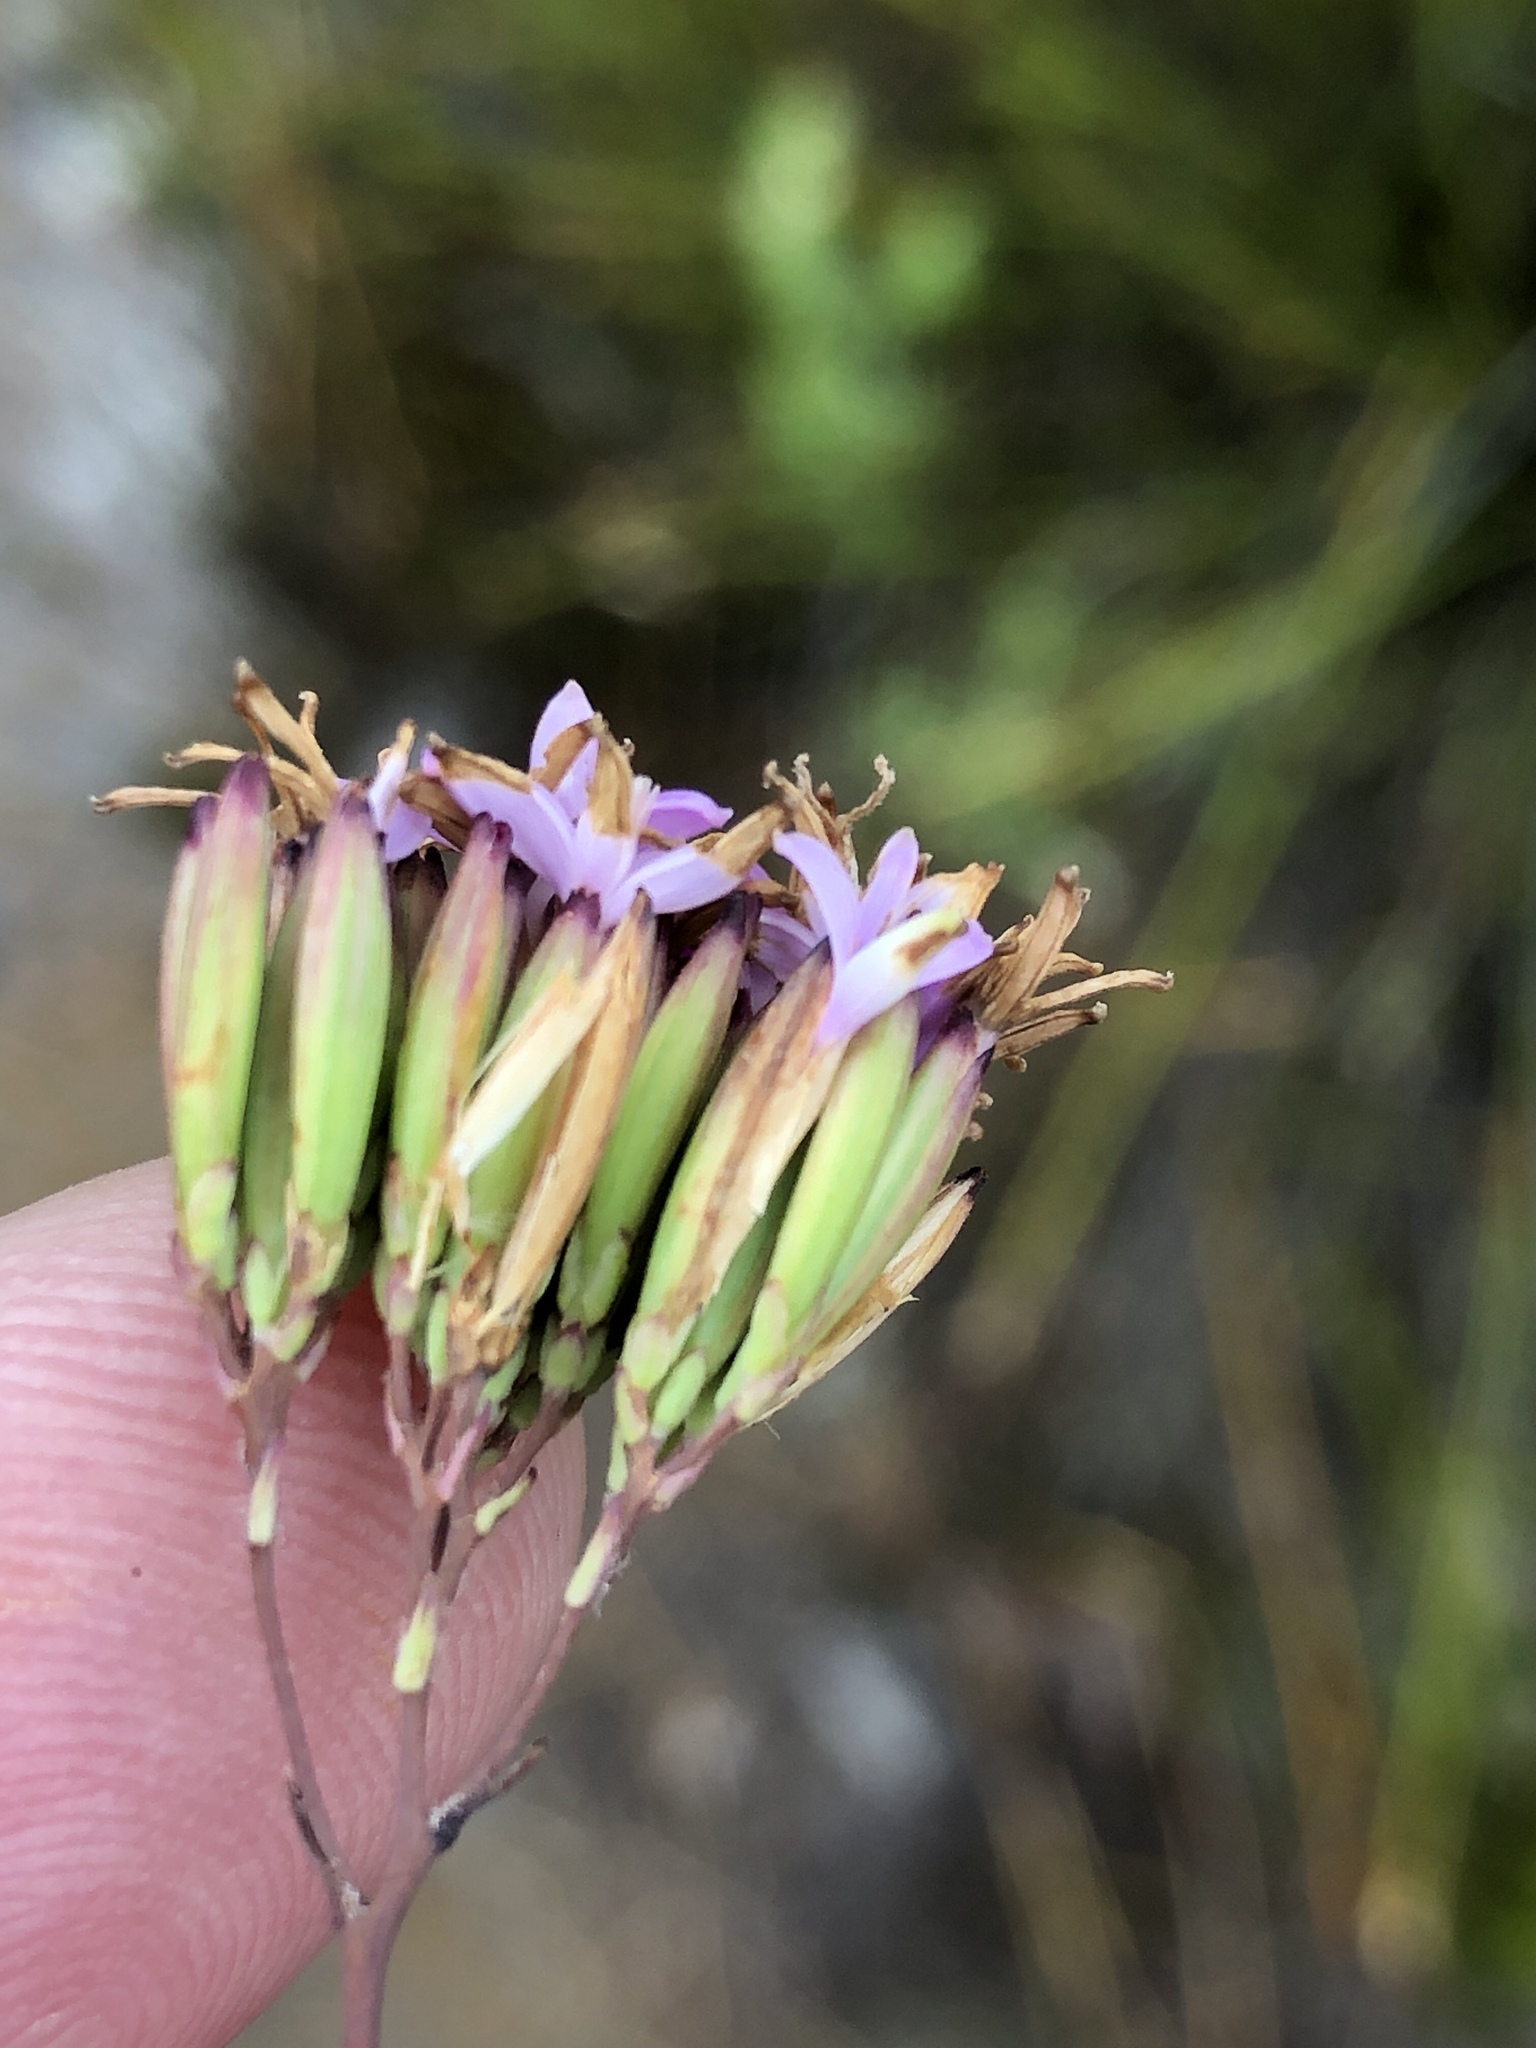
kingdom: Plantae
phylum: Tracheophyta
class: Magnoliopsida
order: Asterales
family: Asteraceae
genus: Corymbium
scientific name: Corymbium glabrum
